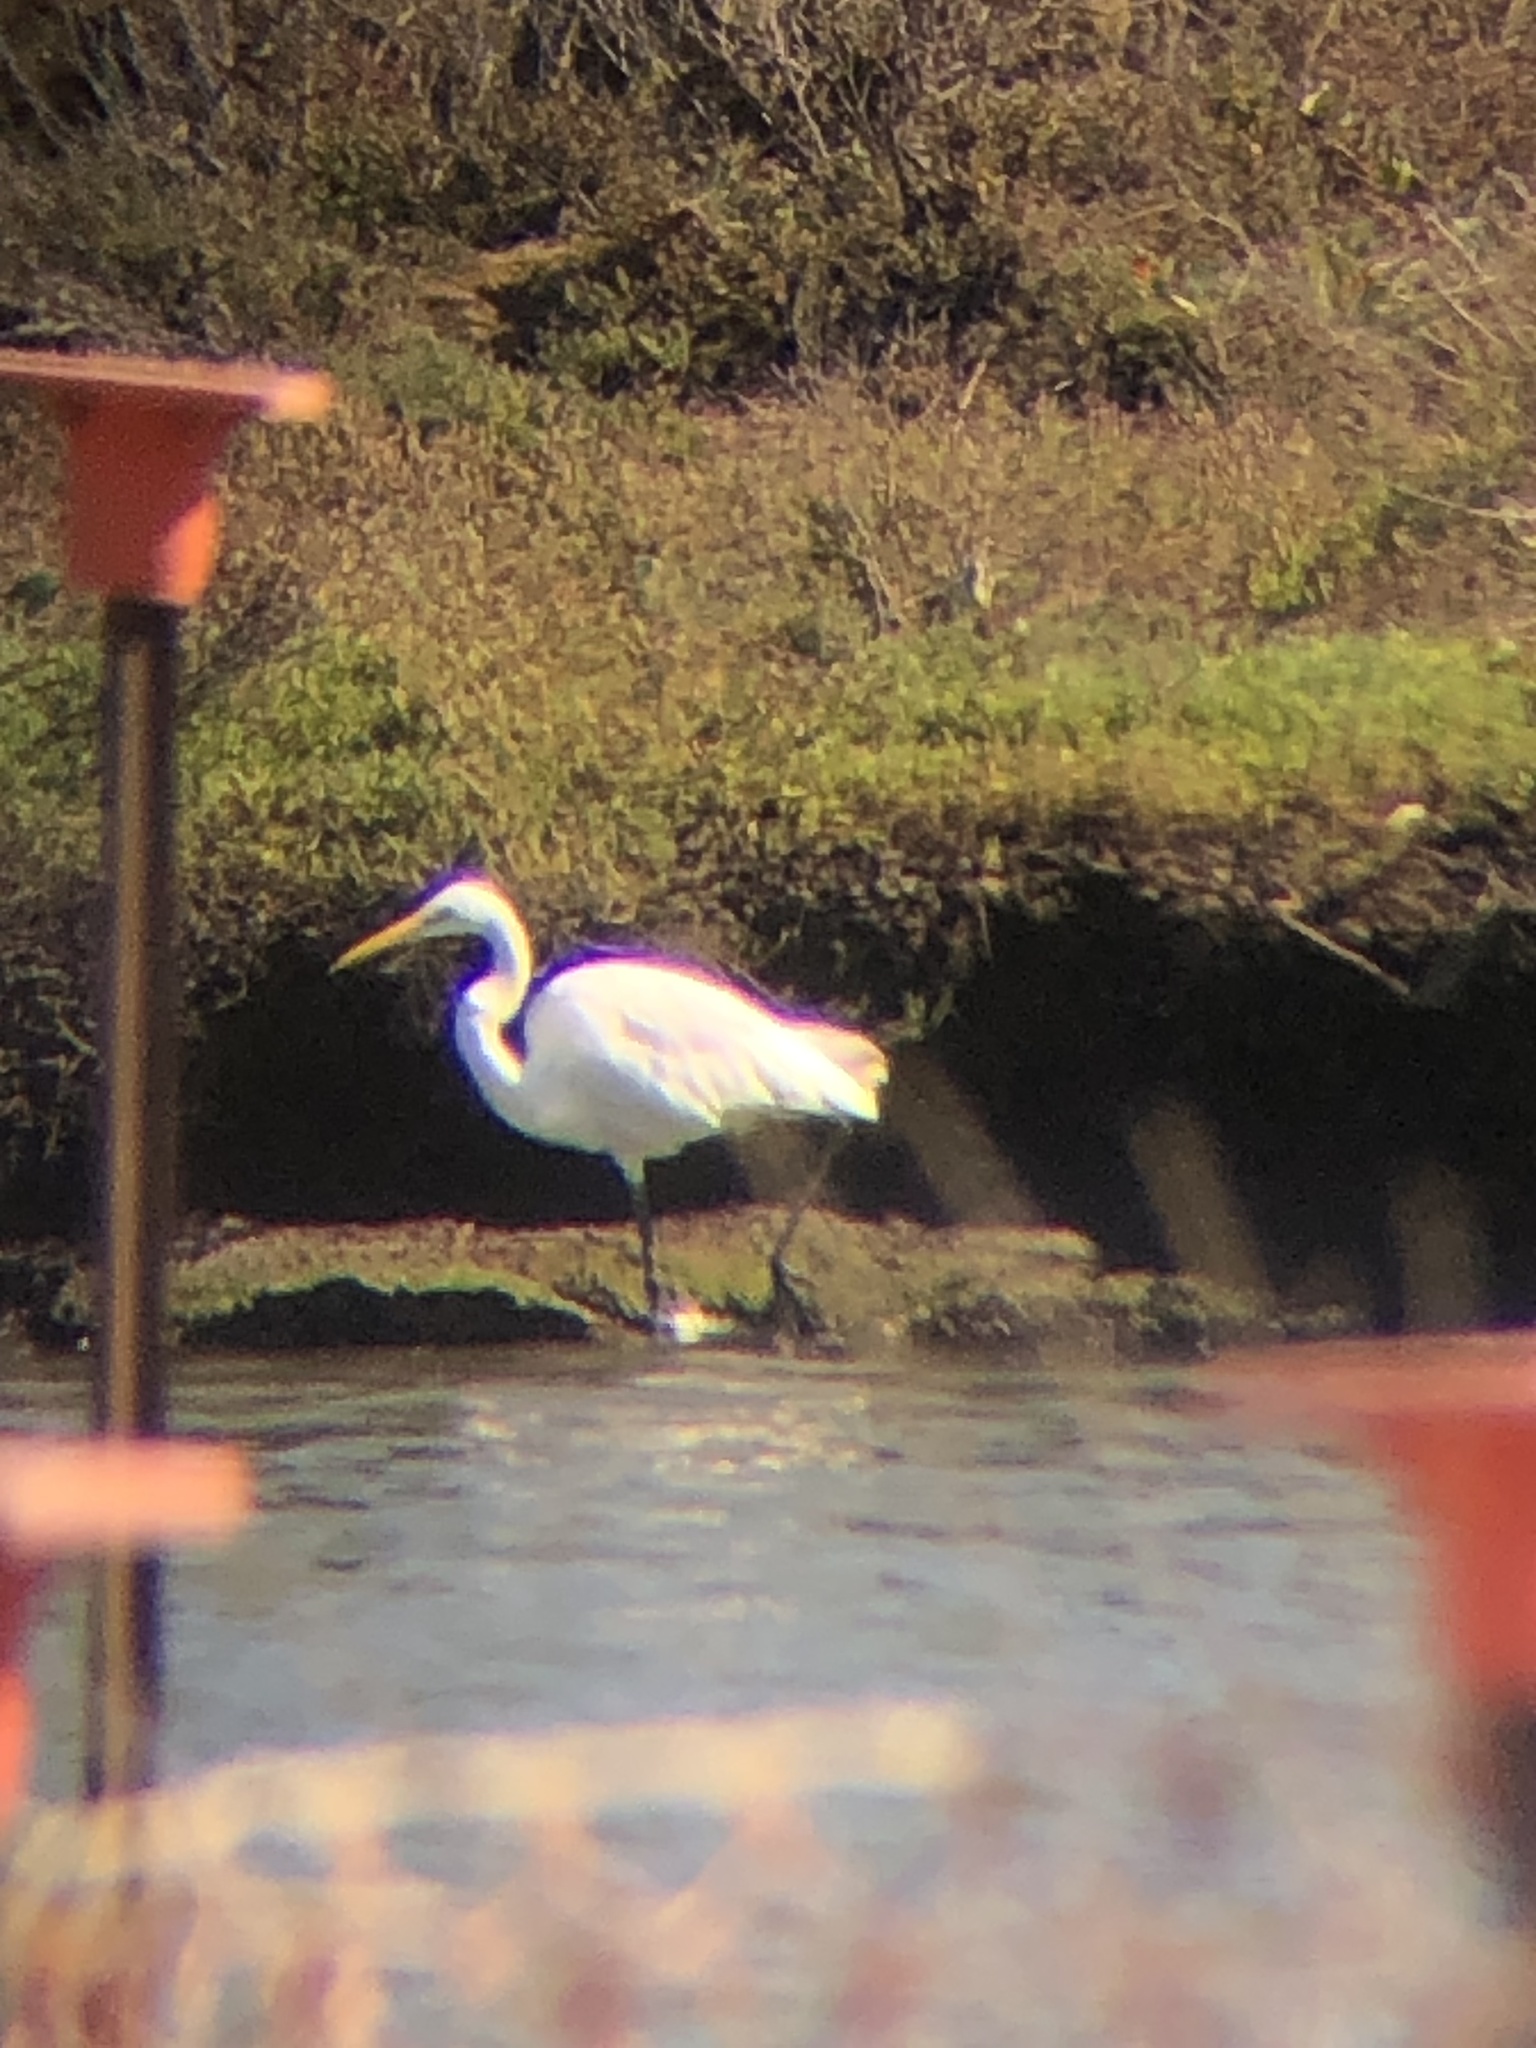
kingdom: Animalia
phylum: Chordata
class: Aves
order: Pelecaniformes
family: Ardeidae
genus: Ardea
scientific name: Ardea alba
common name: Great egret
